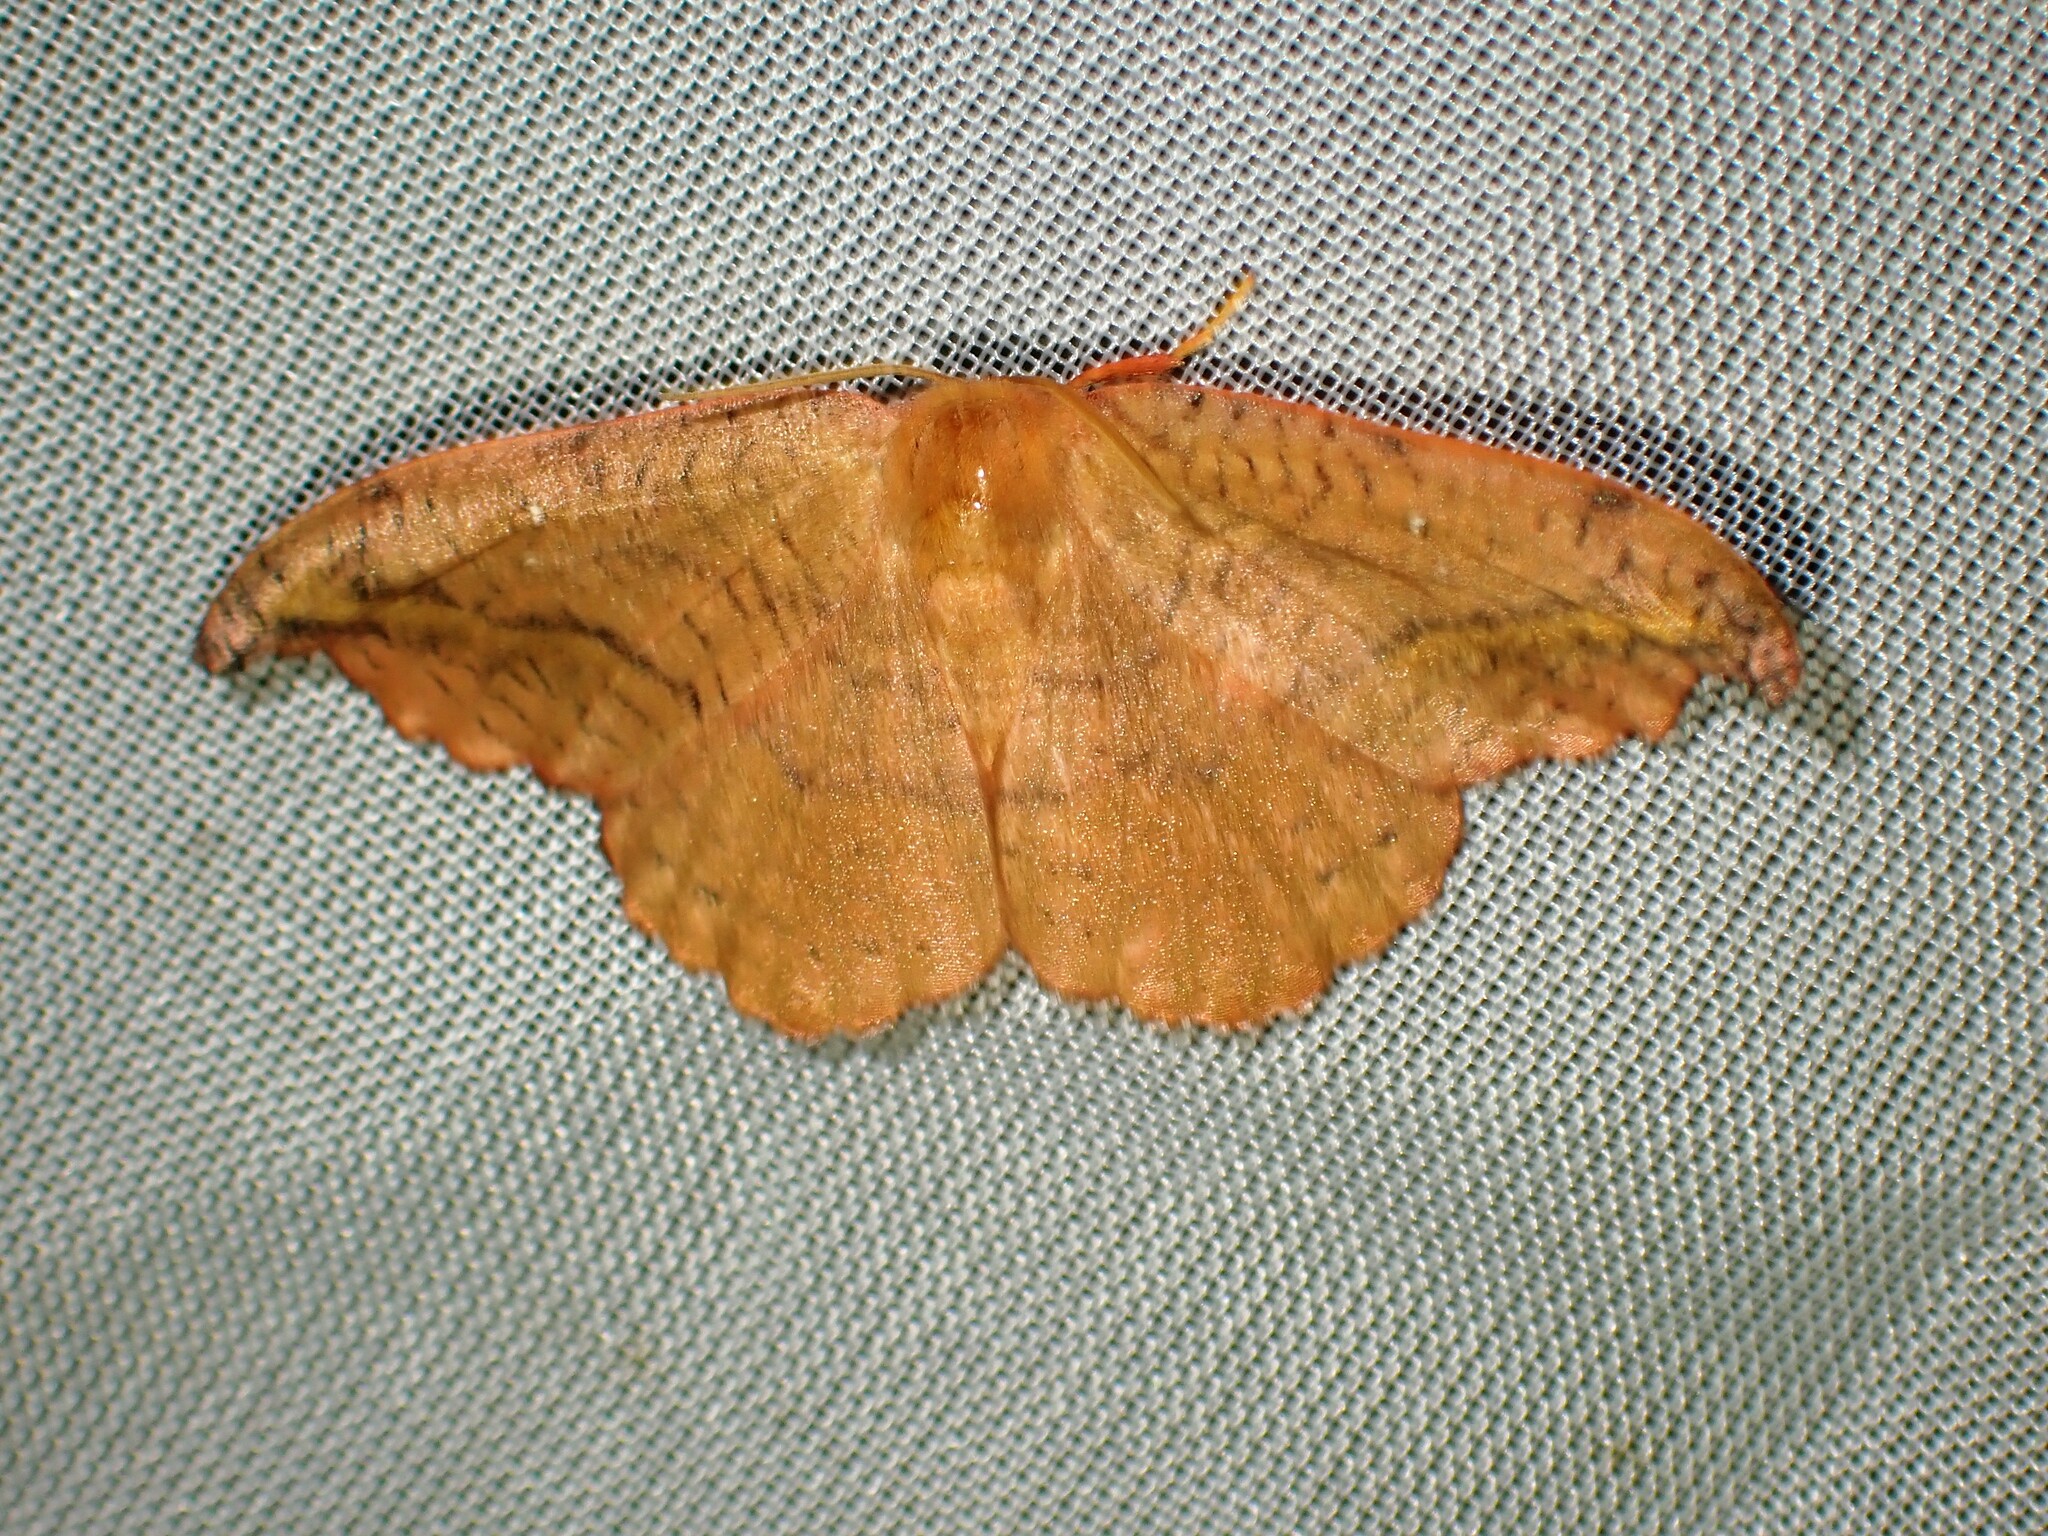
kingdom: Animalia
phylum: Arthropoda
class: Insecta
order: Lepidoptera
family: Drepanidae
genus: Oreta
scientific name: Oreta rosea
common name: Rose hooktip
